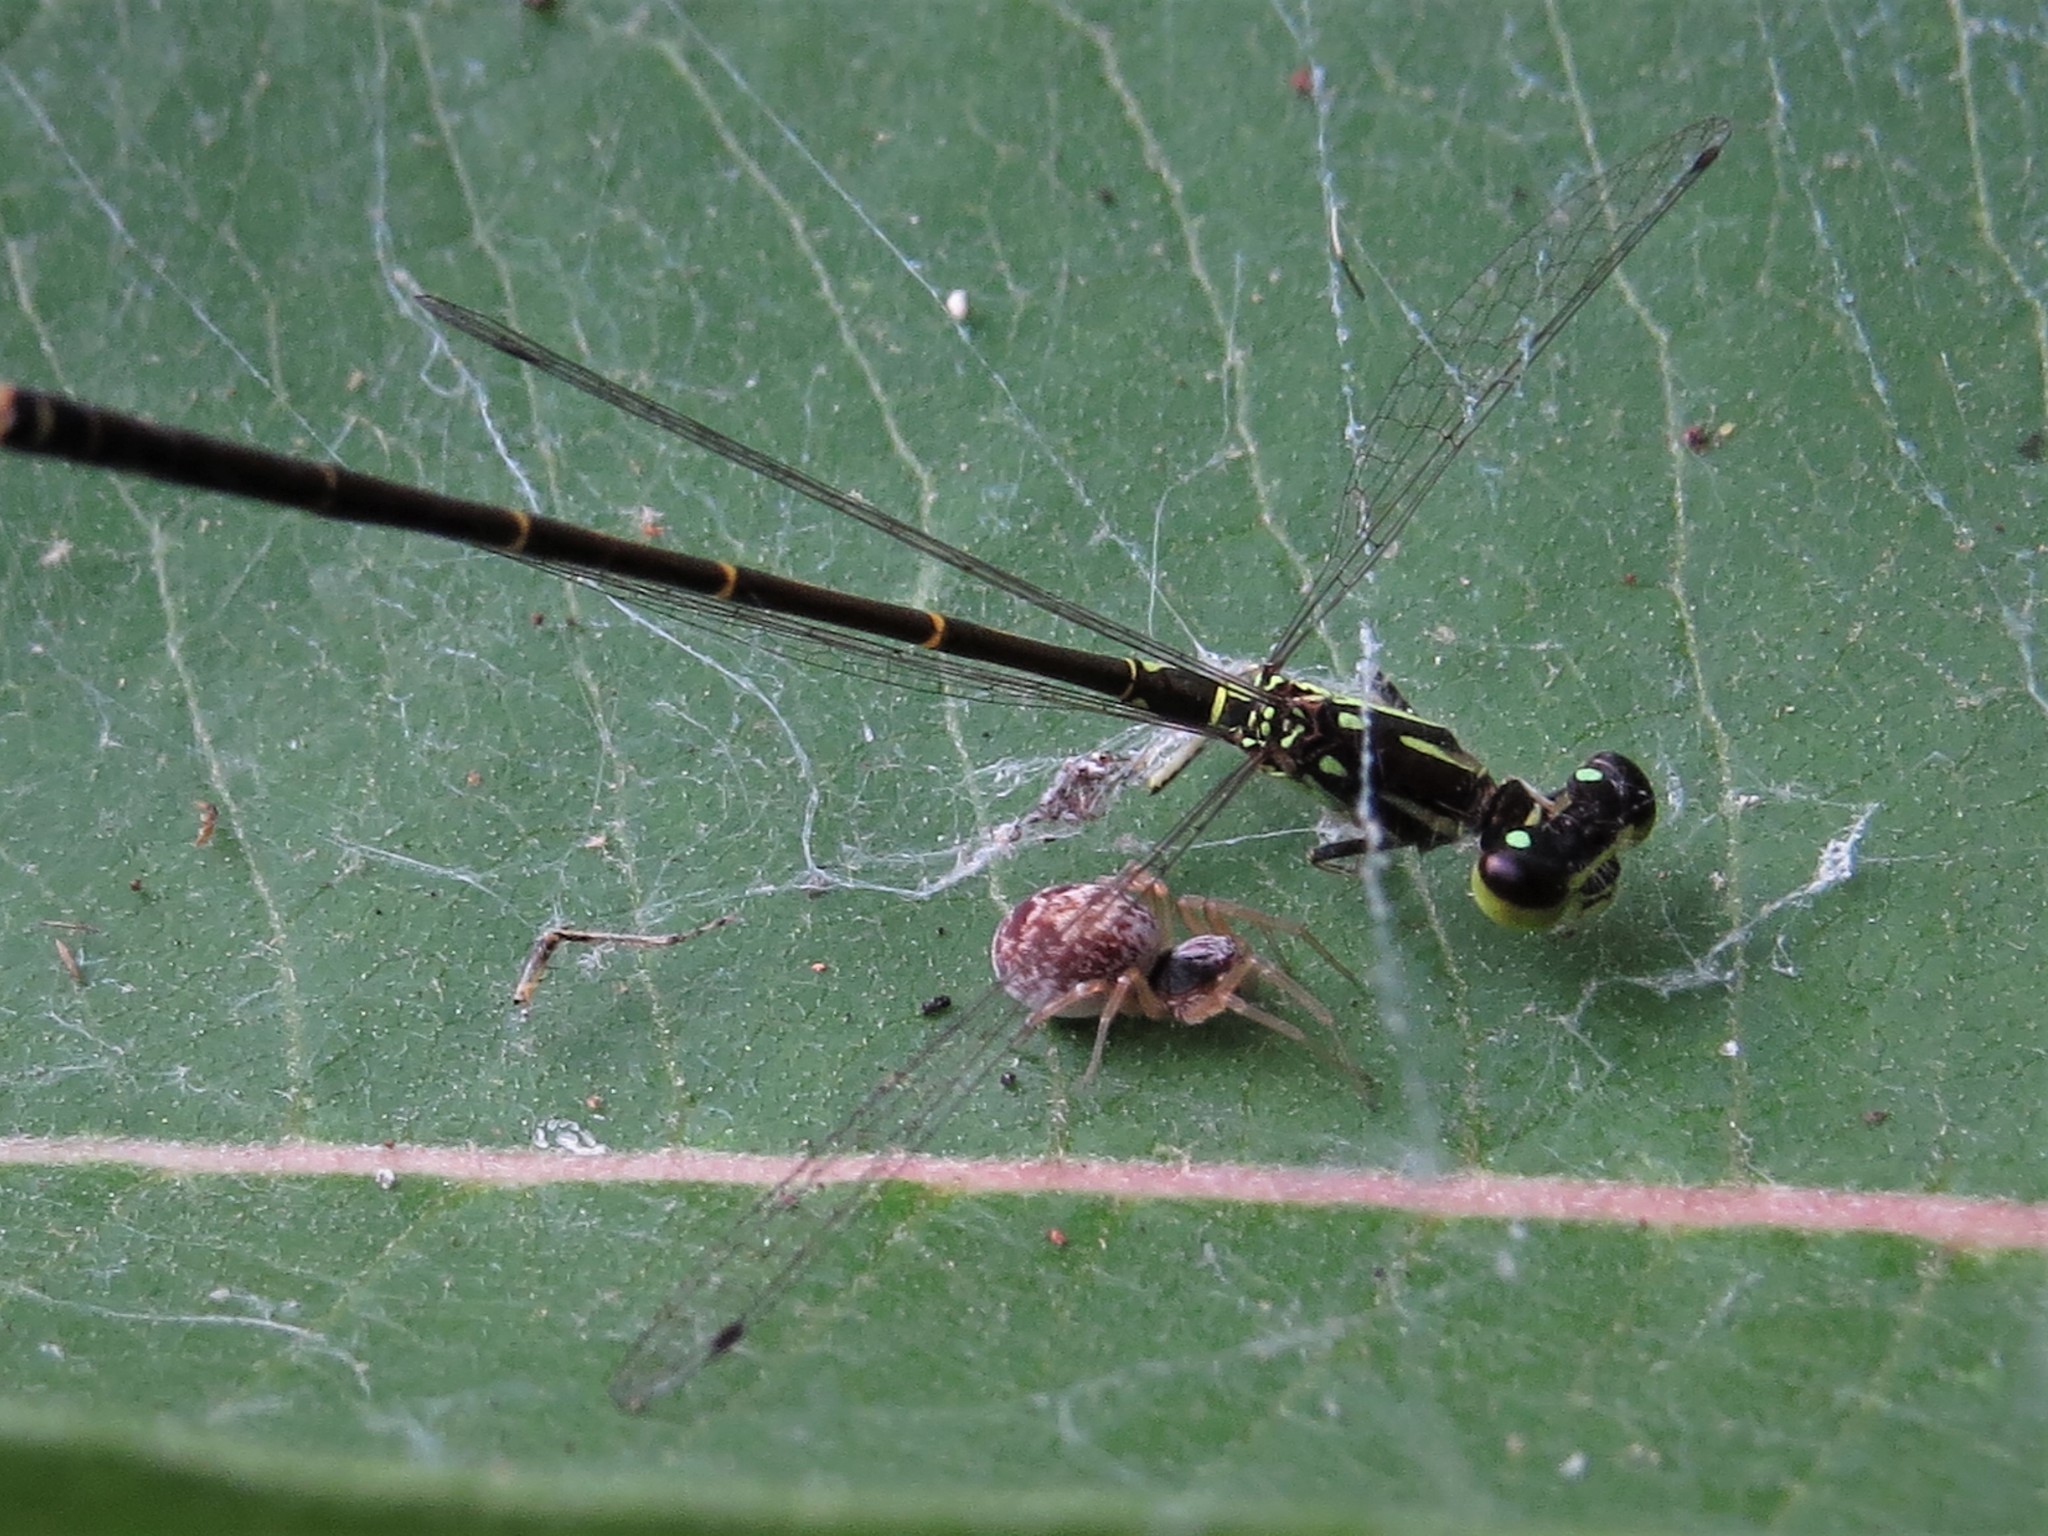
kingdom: Animalia
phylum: Arthropoda
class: Insecta
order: Odonata
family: Coenagrionidae
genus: Ischnura
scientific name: Ischnura posita
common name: Fragile forktail
